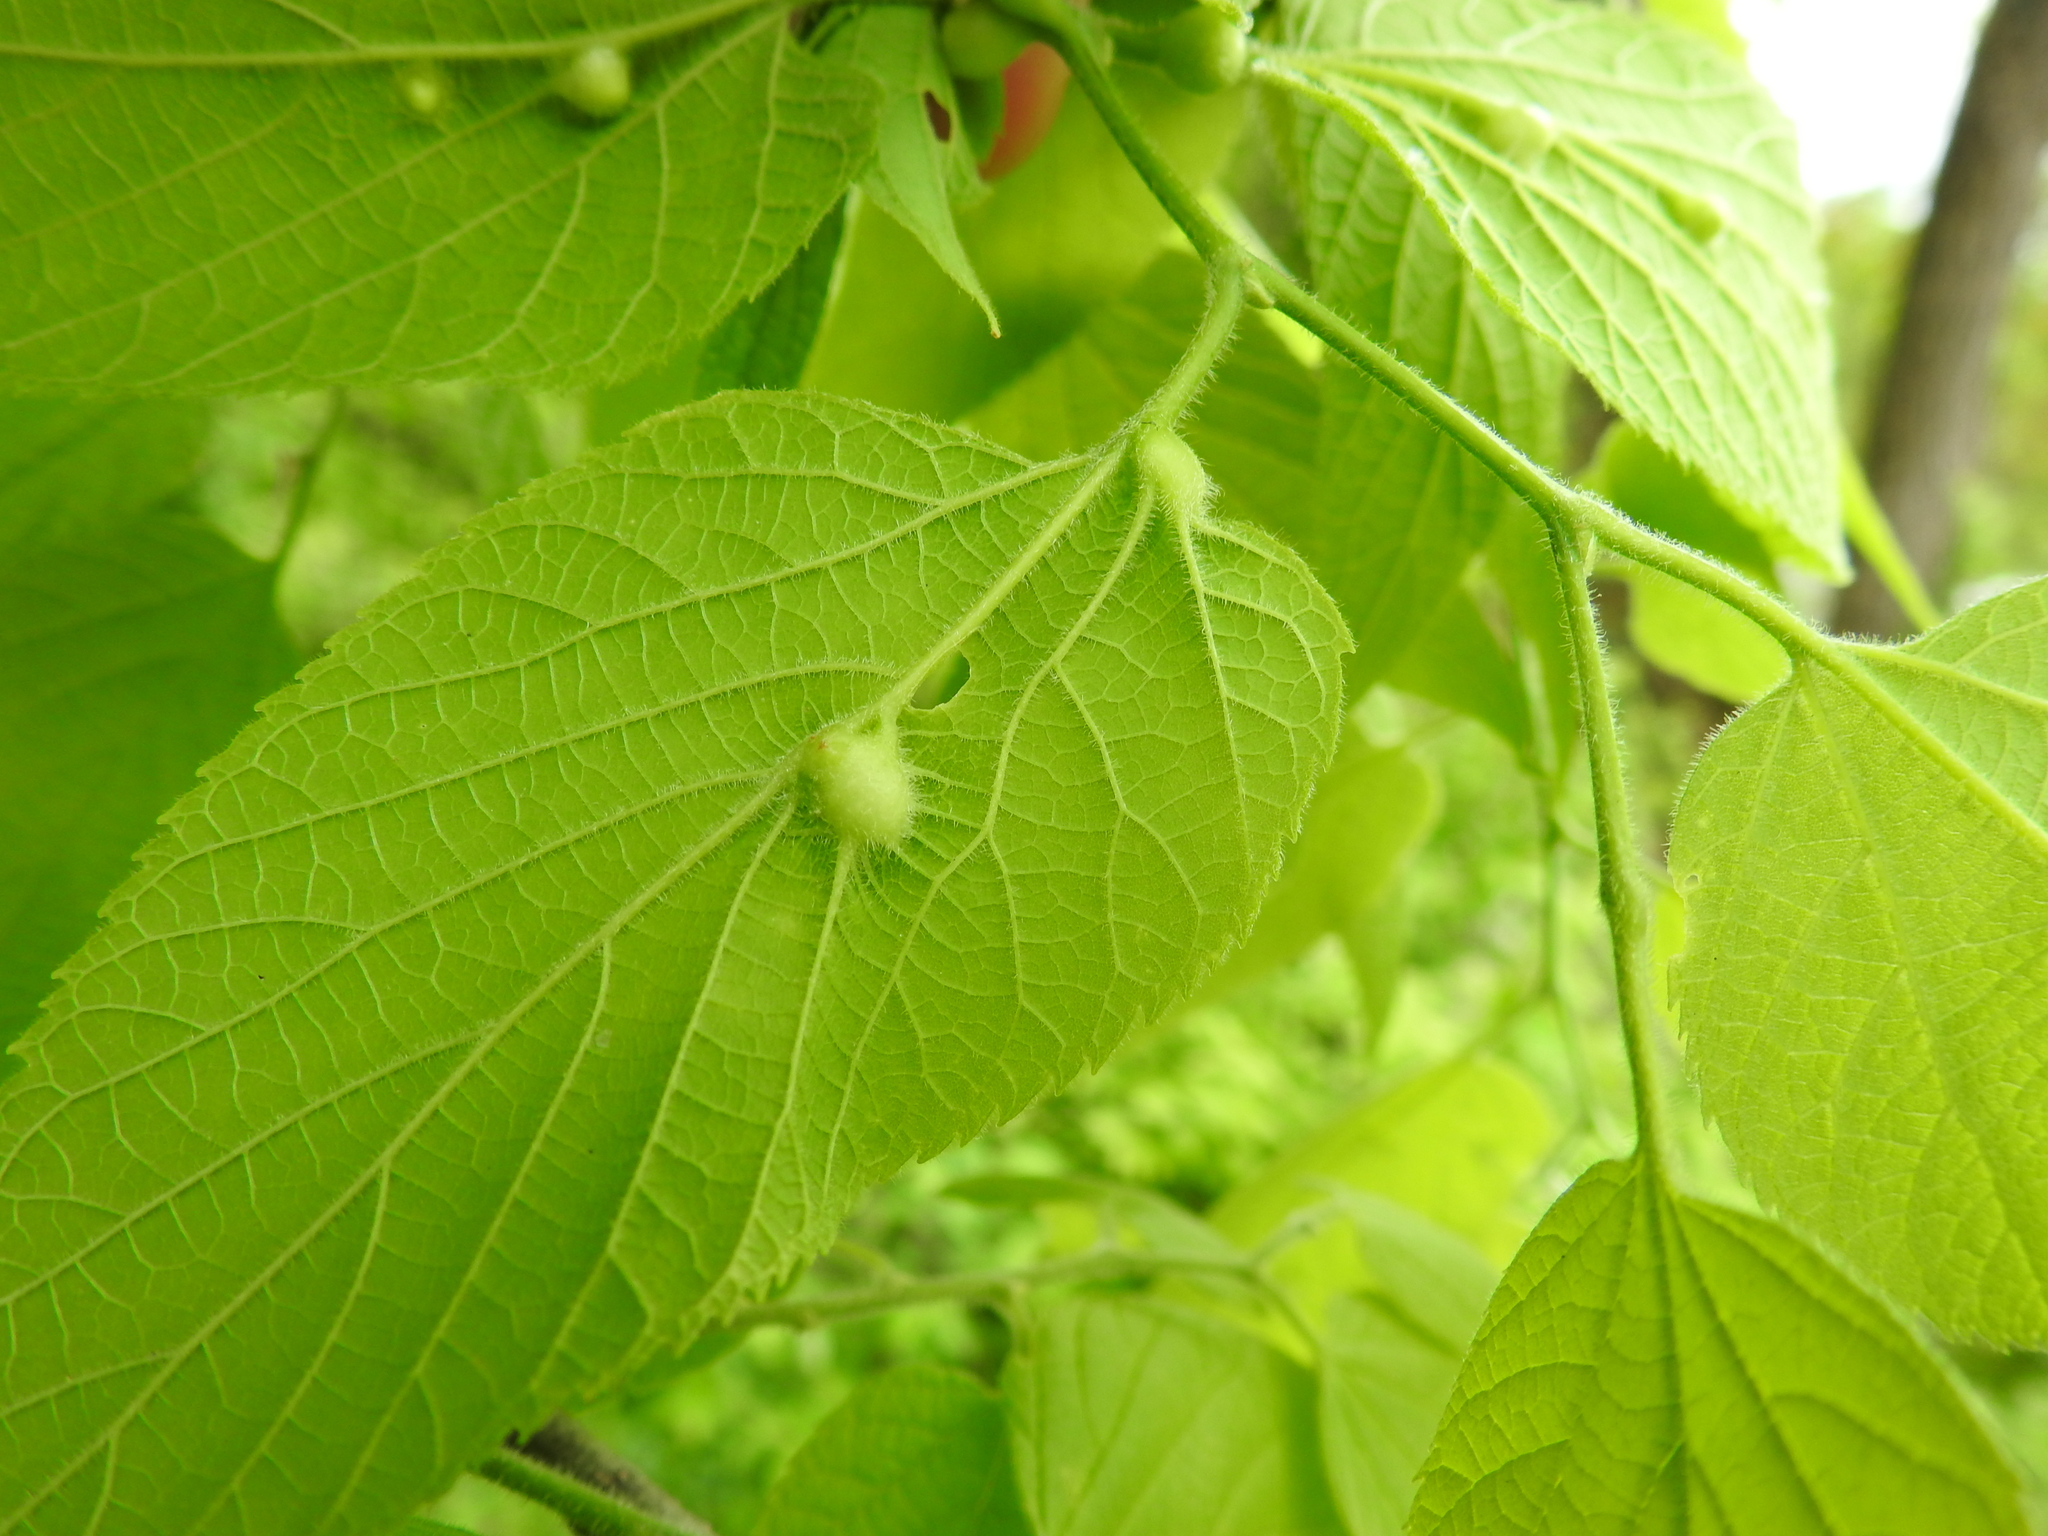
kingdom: Animalia
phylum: Arthropoda
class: Insecta
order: Diptera
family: Cecidomyiidae
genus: Celticecis
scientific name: Celticecis expulsa
